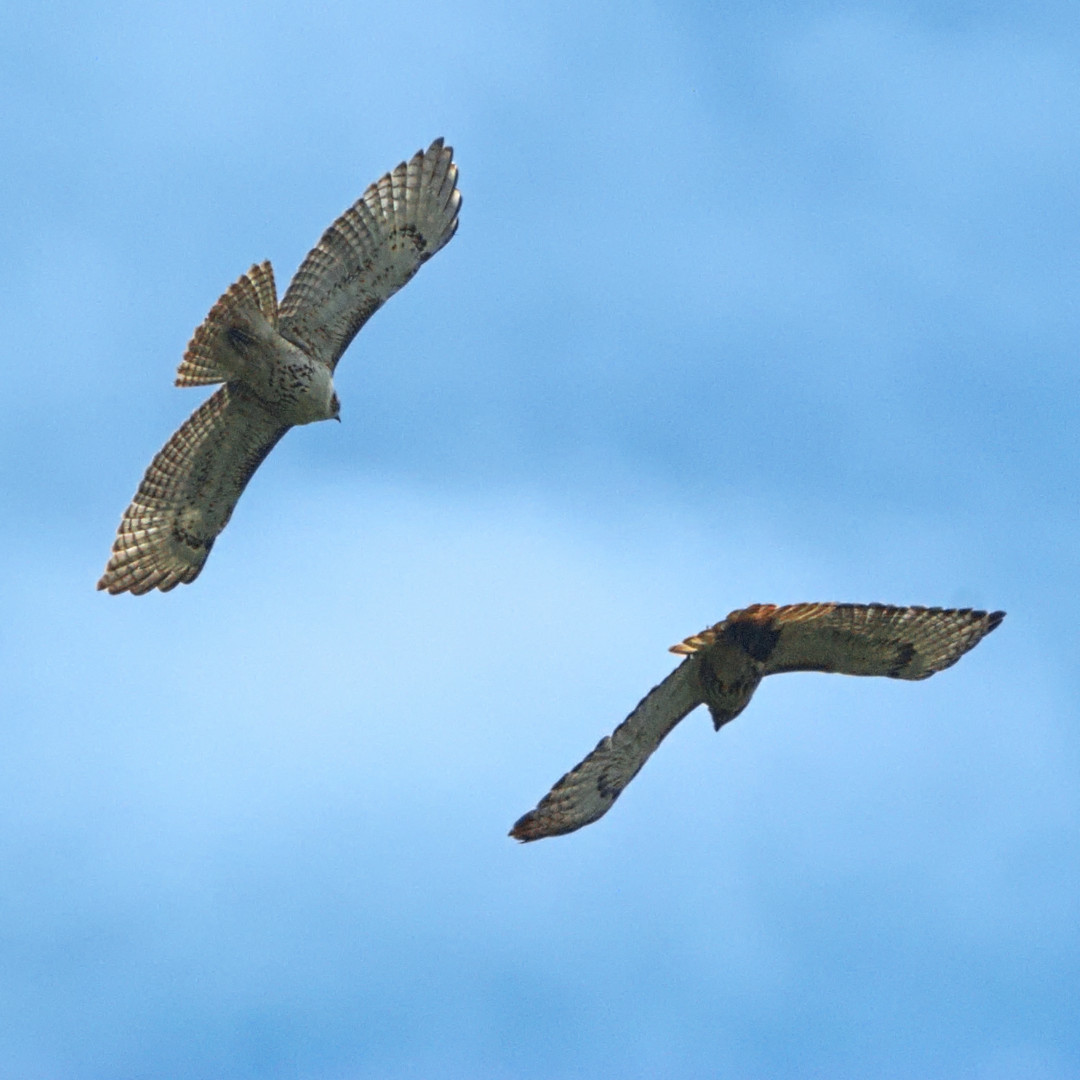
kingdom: Animalia
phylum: Chordata
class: Aves
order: Accipitriformes
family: Accipitridae
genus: Buteo
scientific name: Buteo jamaicensis
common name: Red-tailed hawk
